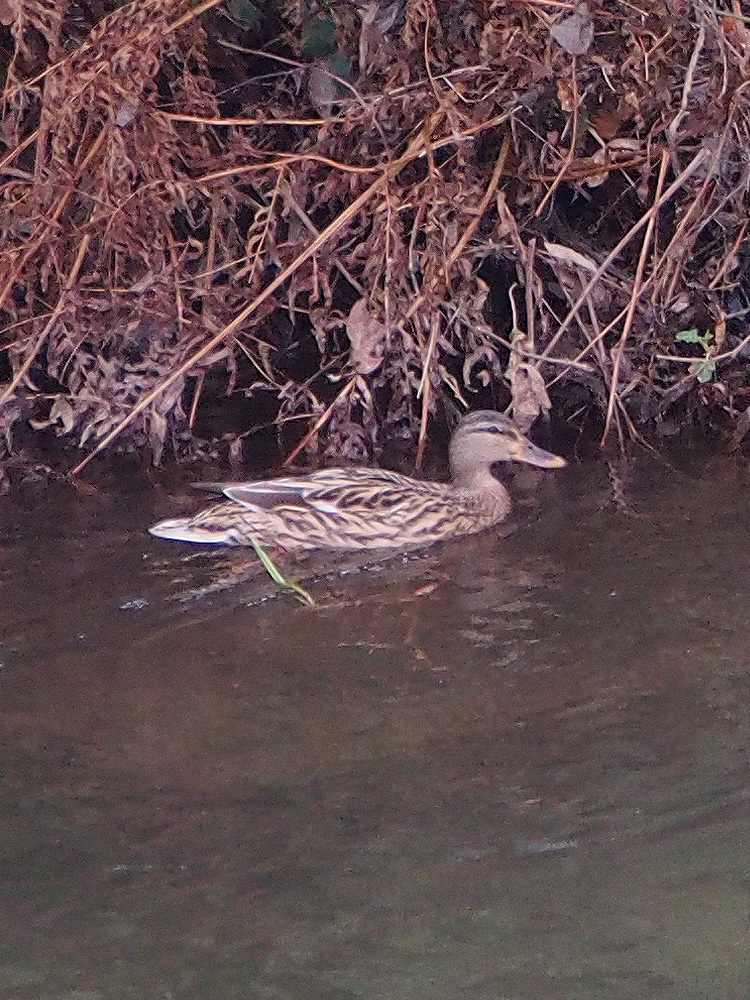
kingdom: Animalia
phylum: Chordata
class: Aves
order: Anseriformes
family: Anatidae
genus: Anas
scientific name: Anas platyrhynchos
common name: Mallard
